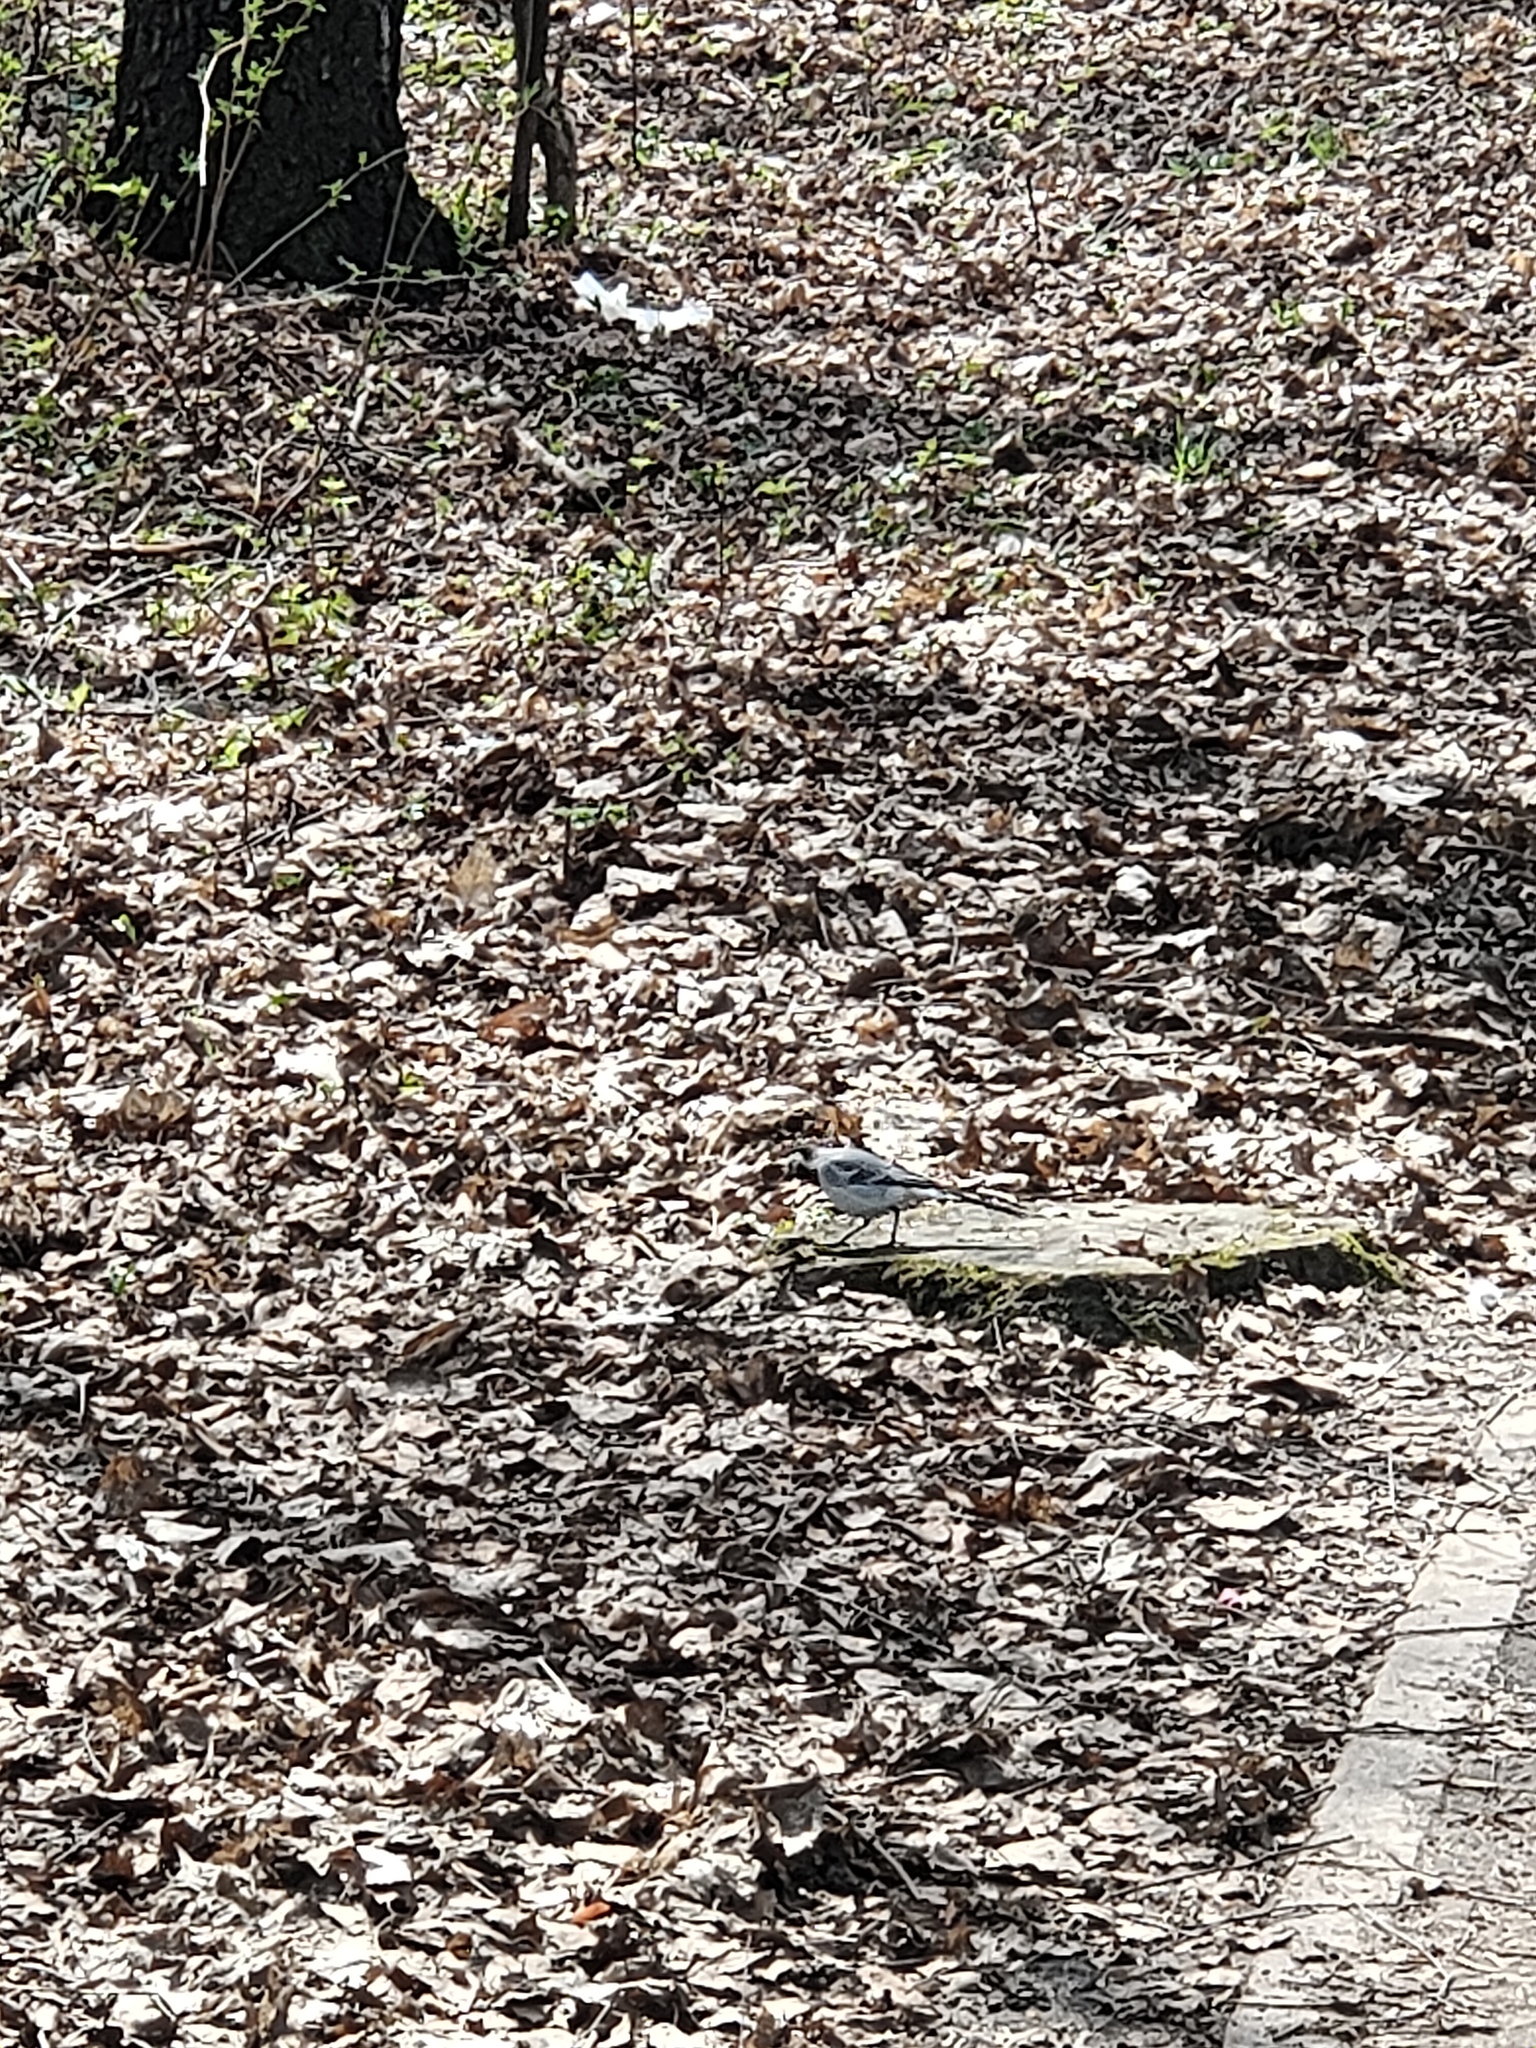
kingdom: Animalia
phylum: Chordata
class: Aves
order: Passeriformes
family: Motacillidae
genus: Motacilla
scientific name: Motacilla alba
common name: White wagtail
